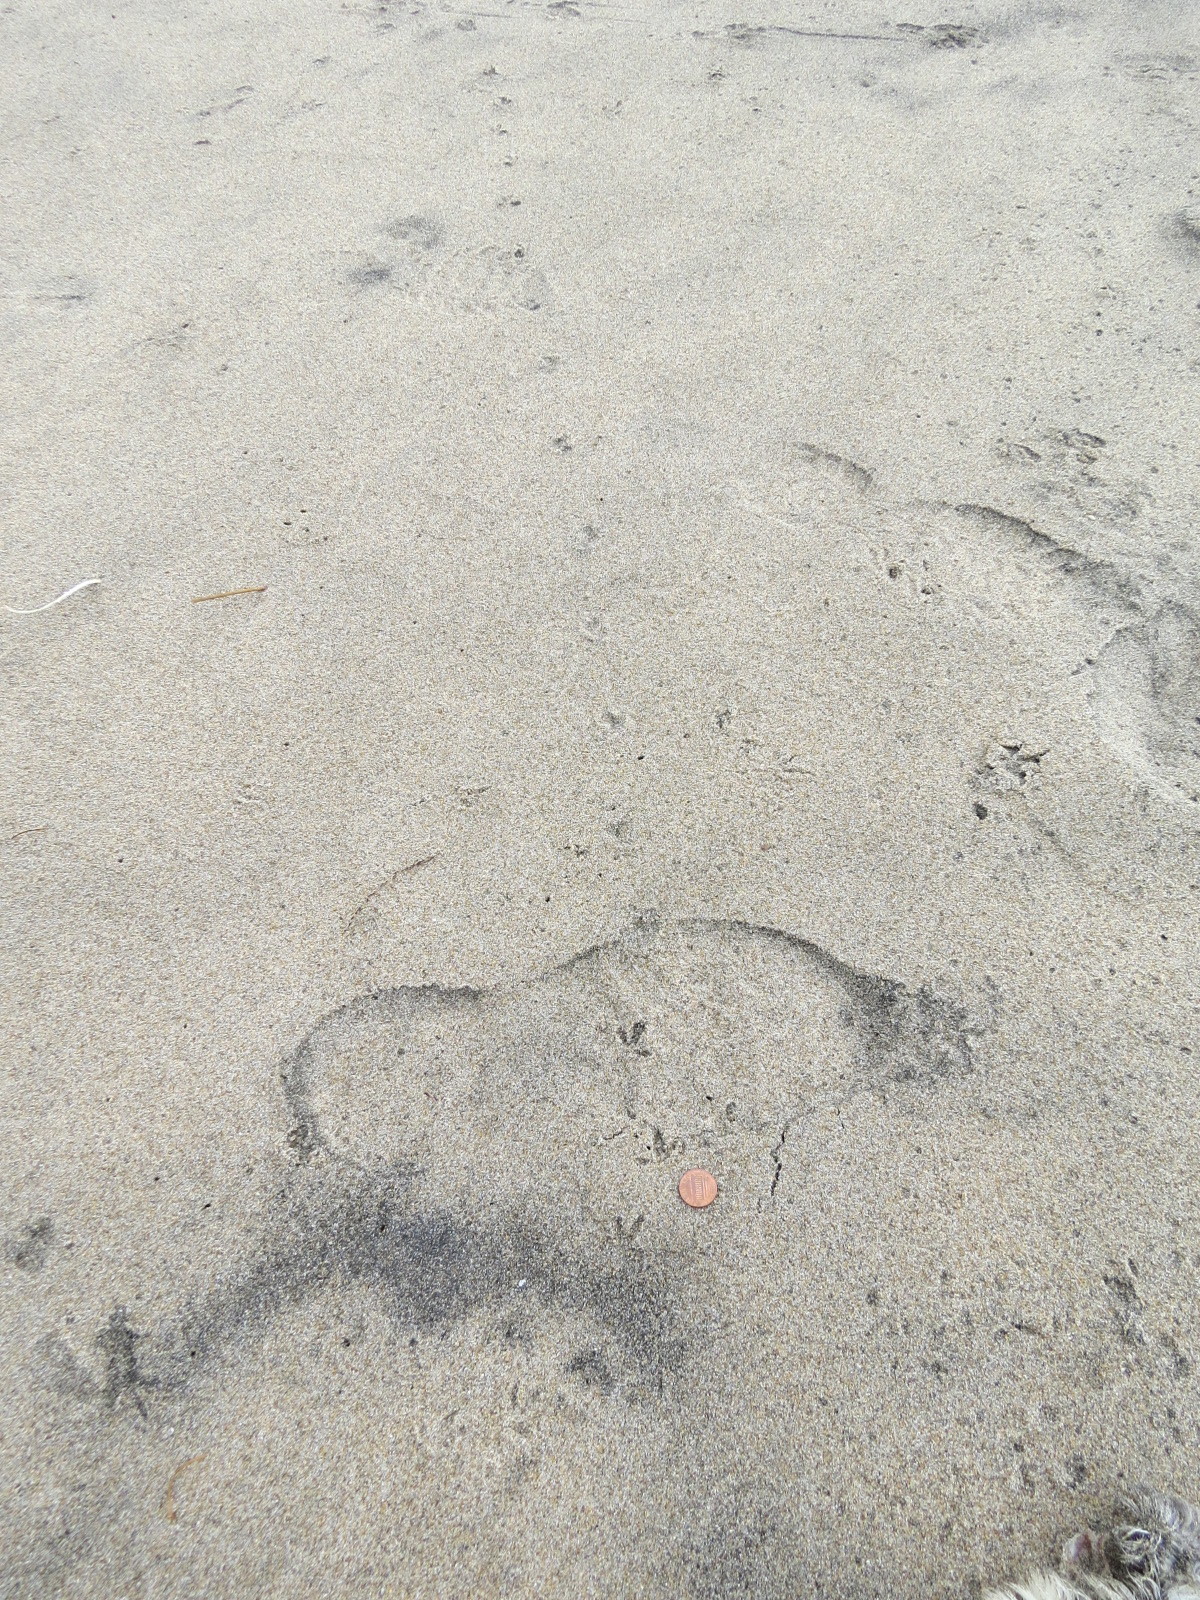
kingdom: Animalia
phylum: Chordata
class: Aves
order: Charadriiformes
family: Charadriidae
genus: Anarhynchus
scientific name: Anarhynchus
